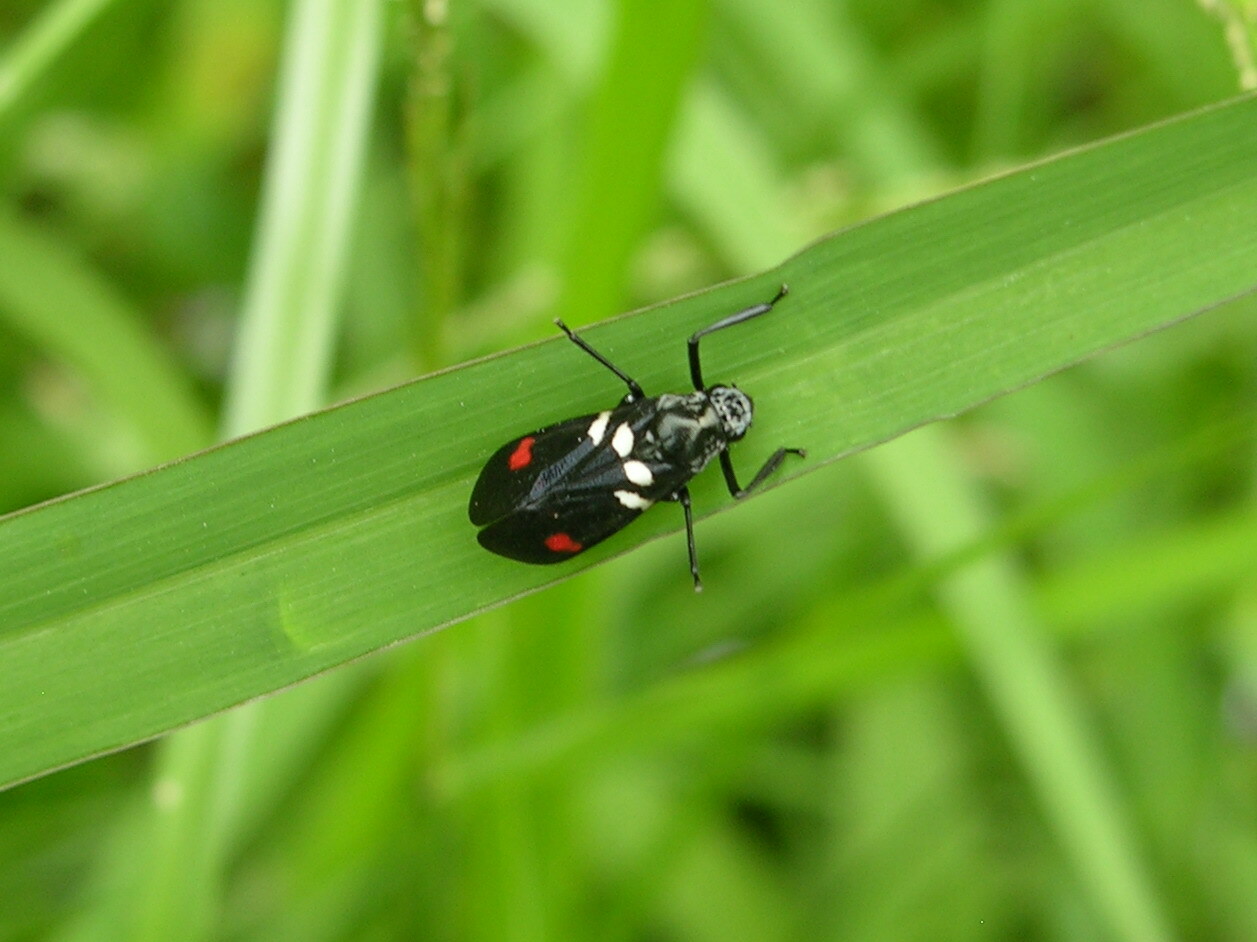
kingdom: Animalia
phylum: Arthropoda
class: Insecta
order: Hemiptera
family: Cercopidae
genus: Callitettix
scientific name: Callitettix versicolor
